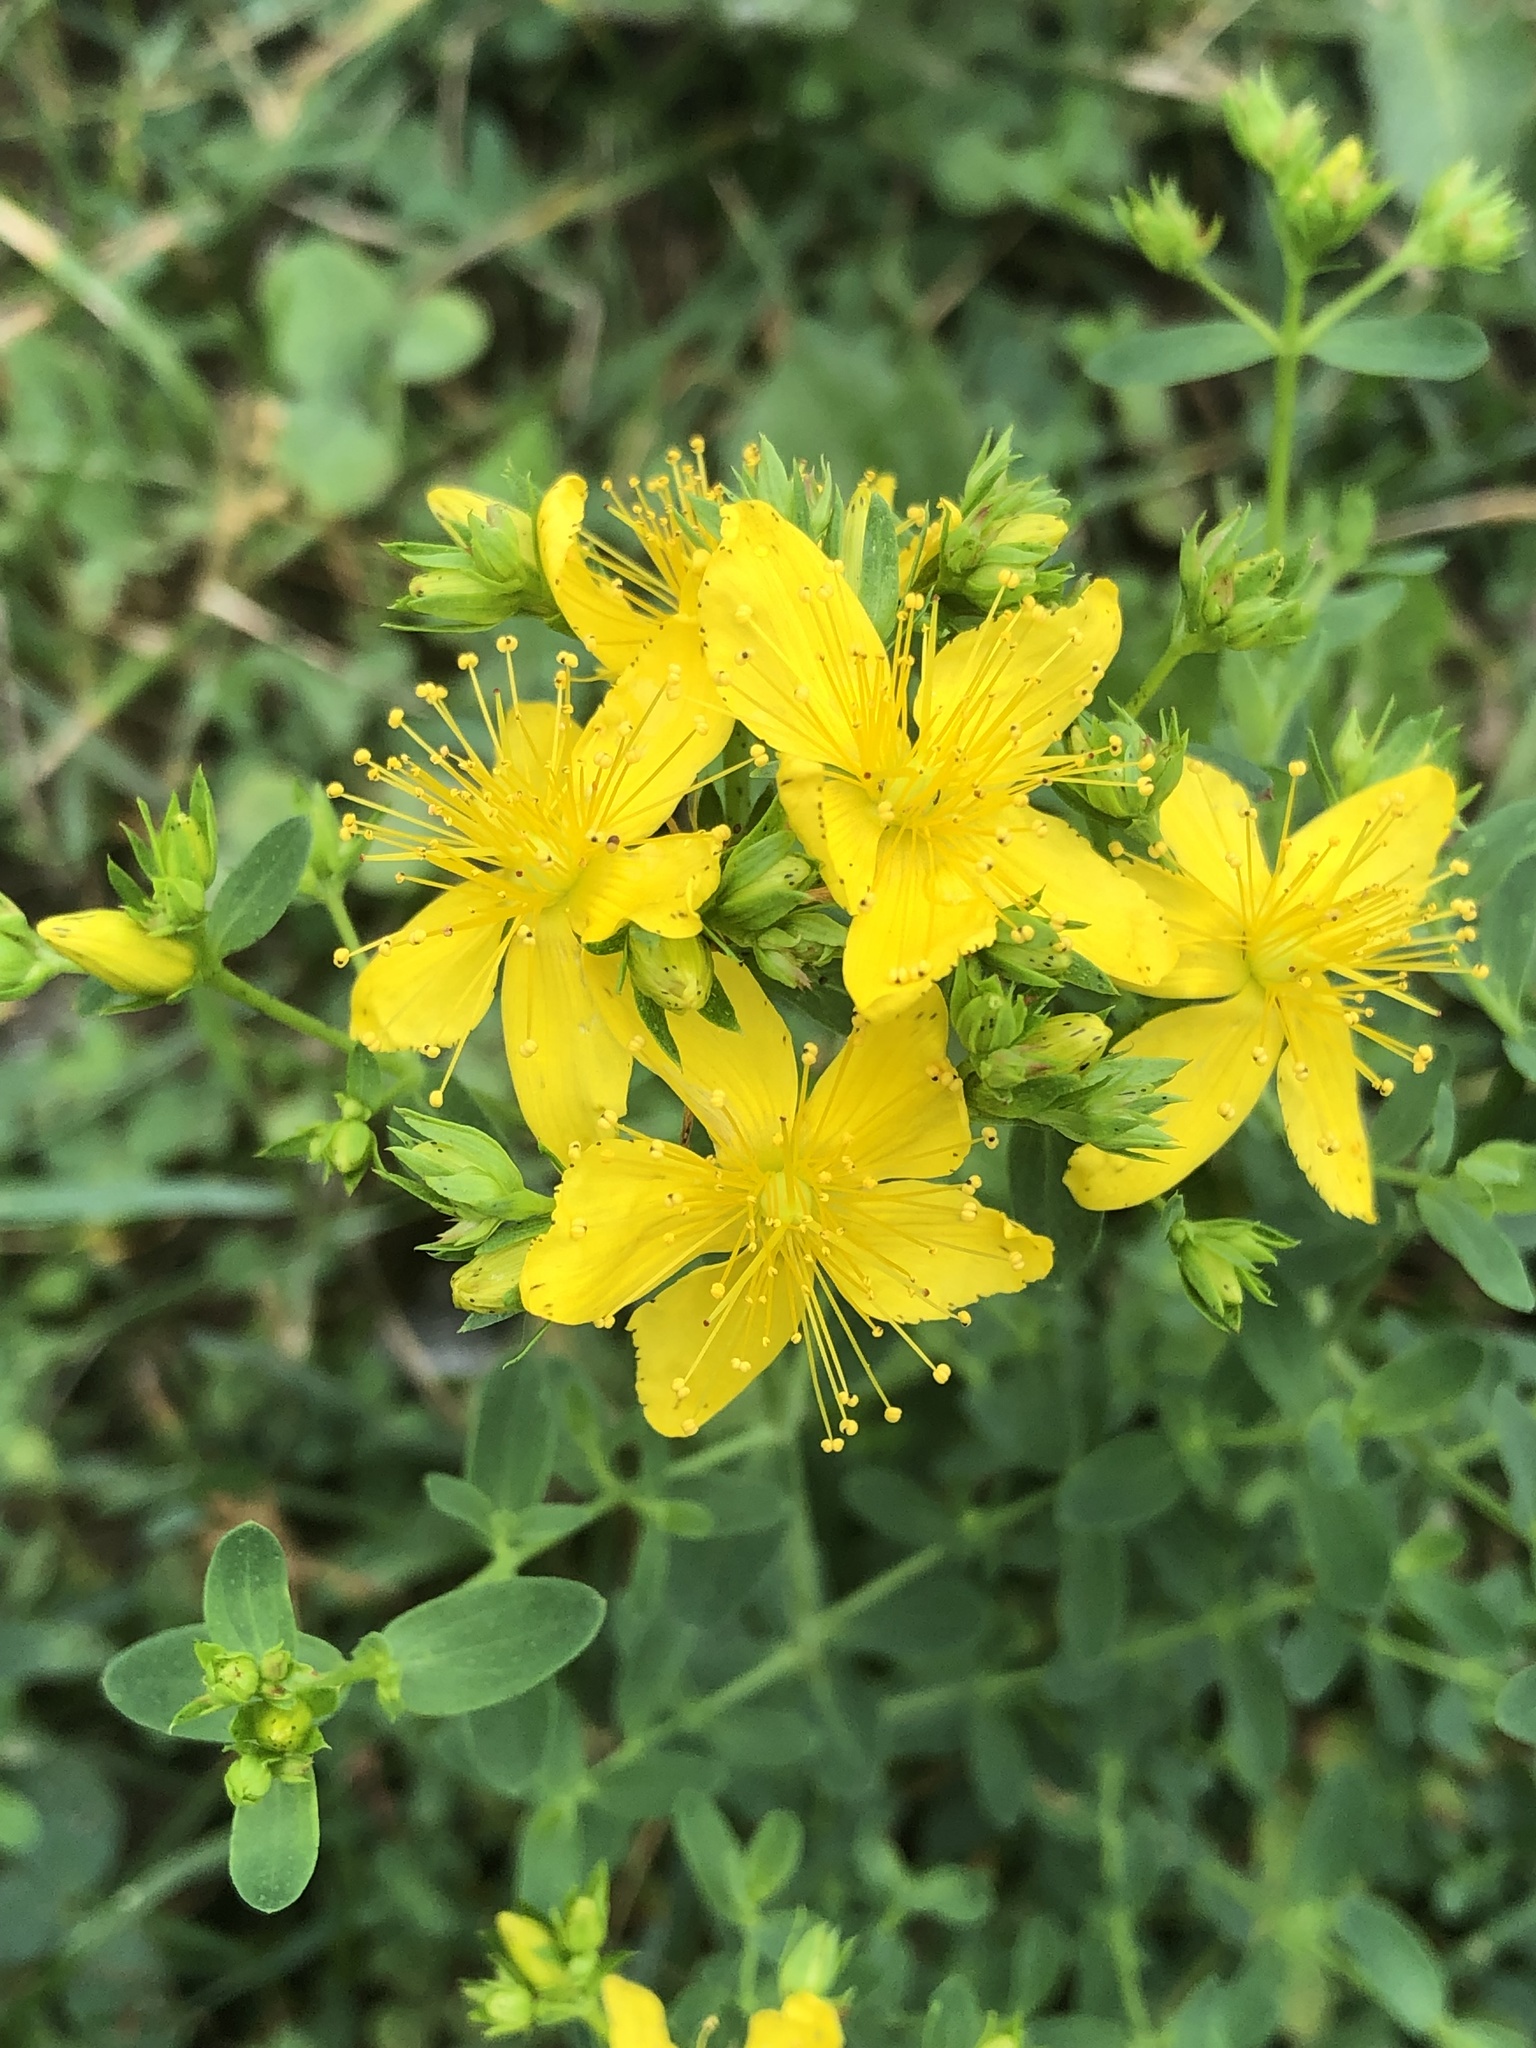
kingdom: Plantae
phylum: Tracheophyta
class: Magnoliopsida
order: Malpighiales
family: Hypericaceae
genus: Hypericum
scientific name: Hypericum perforatum
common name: Common st. johnswort
